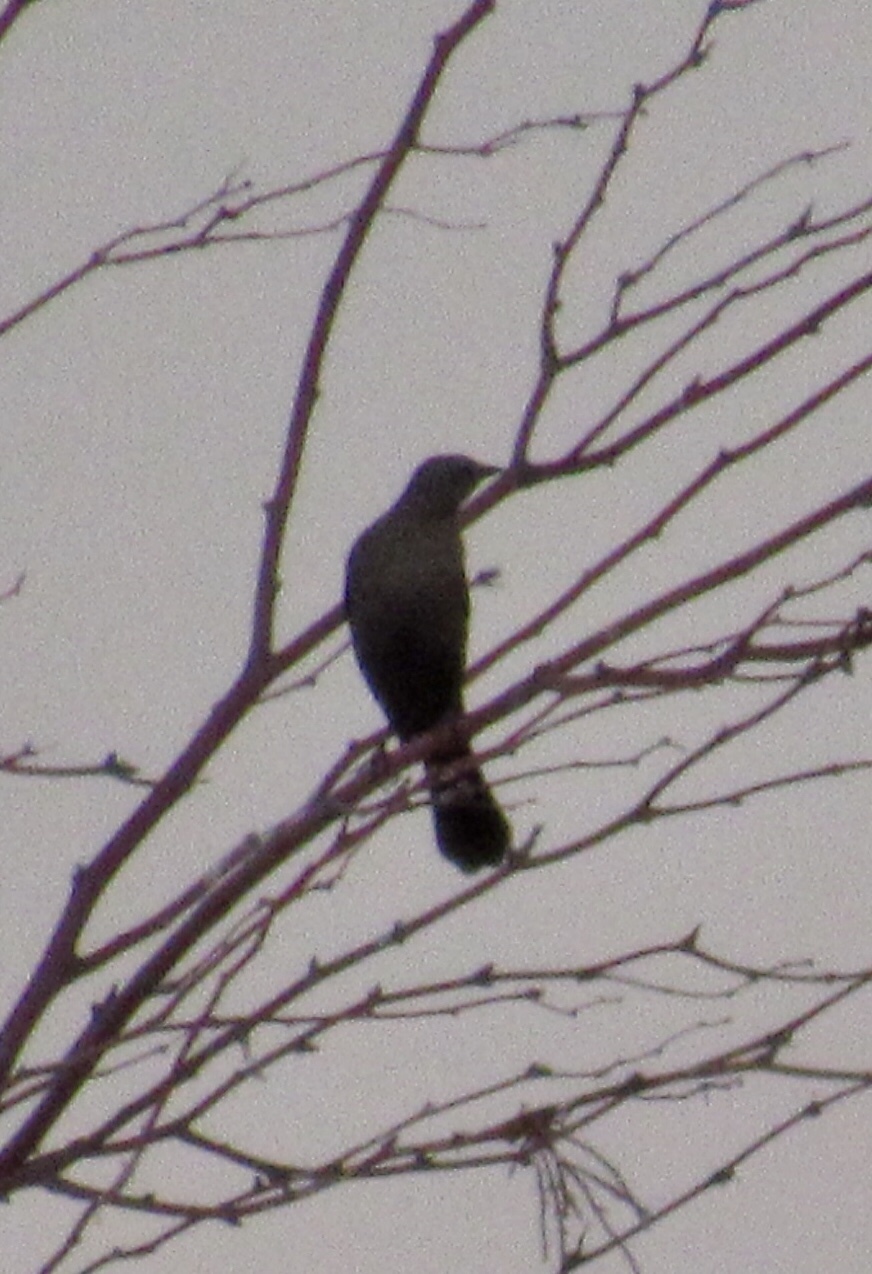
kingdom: Animalia
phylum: Chordata
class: Aves
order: Passeriformes
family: Icteridae
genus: Quiscalus
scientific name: Quiscalus mexicanus
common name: Great-tailed grackle
